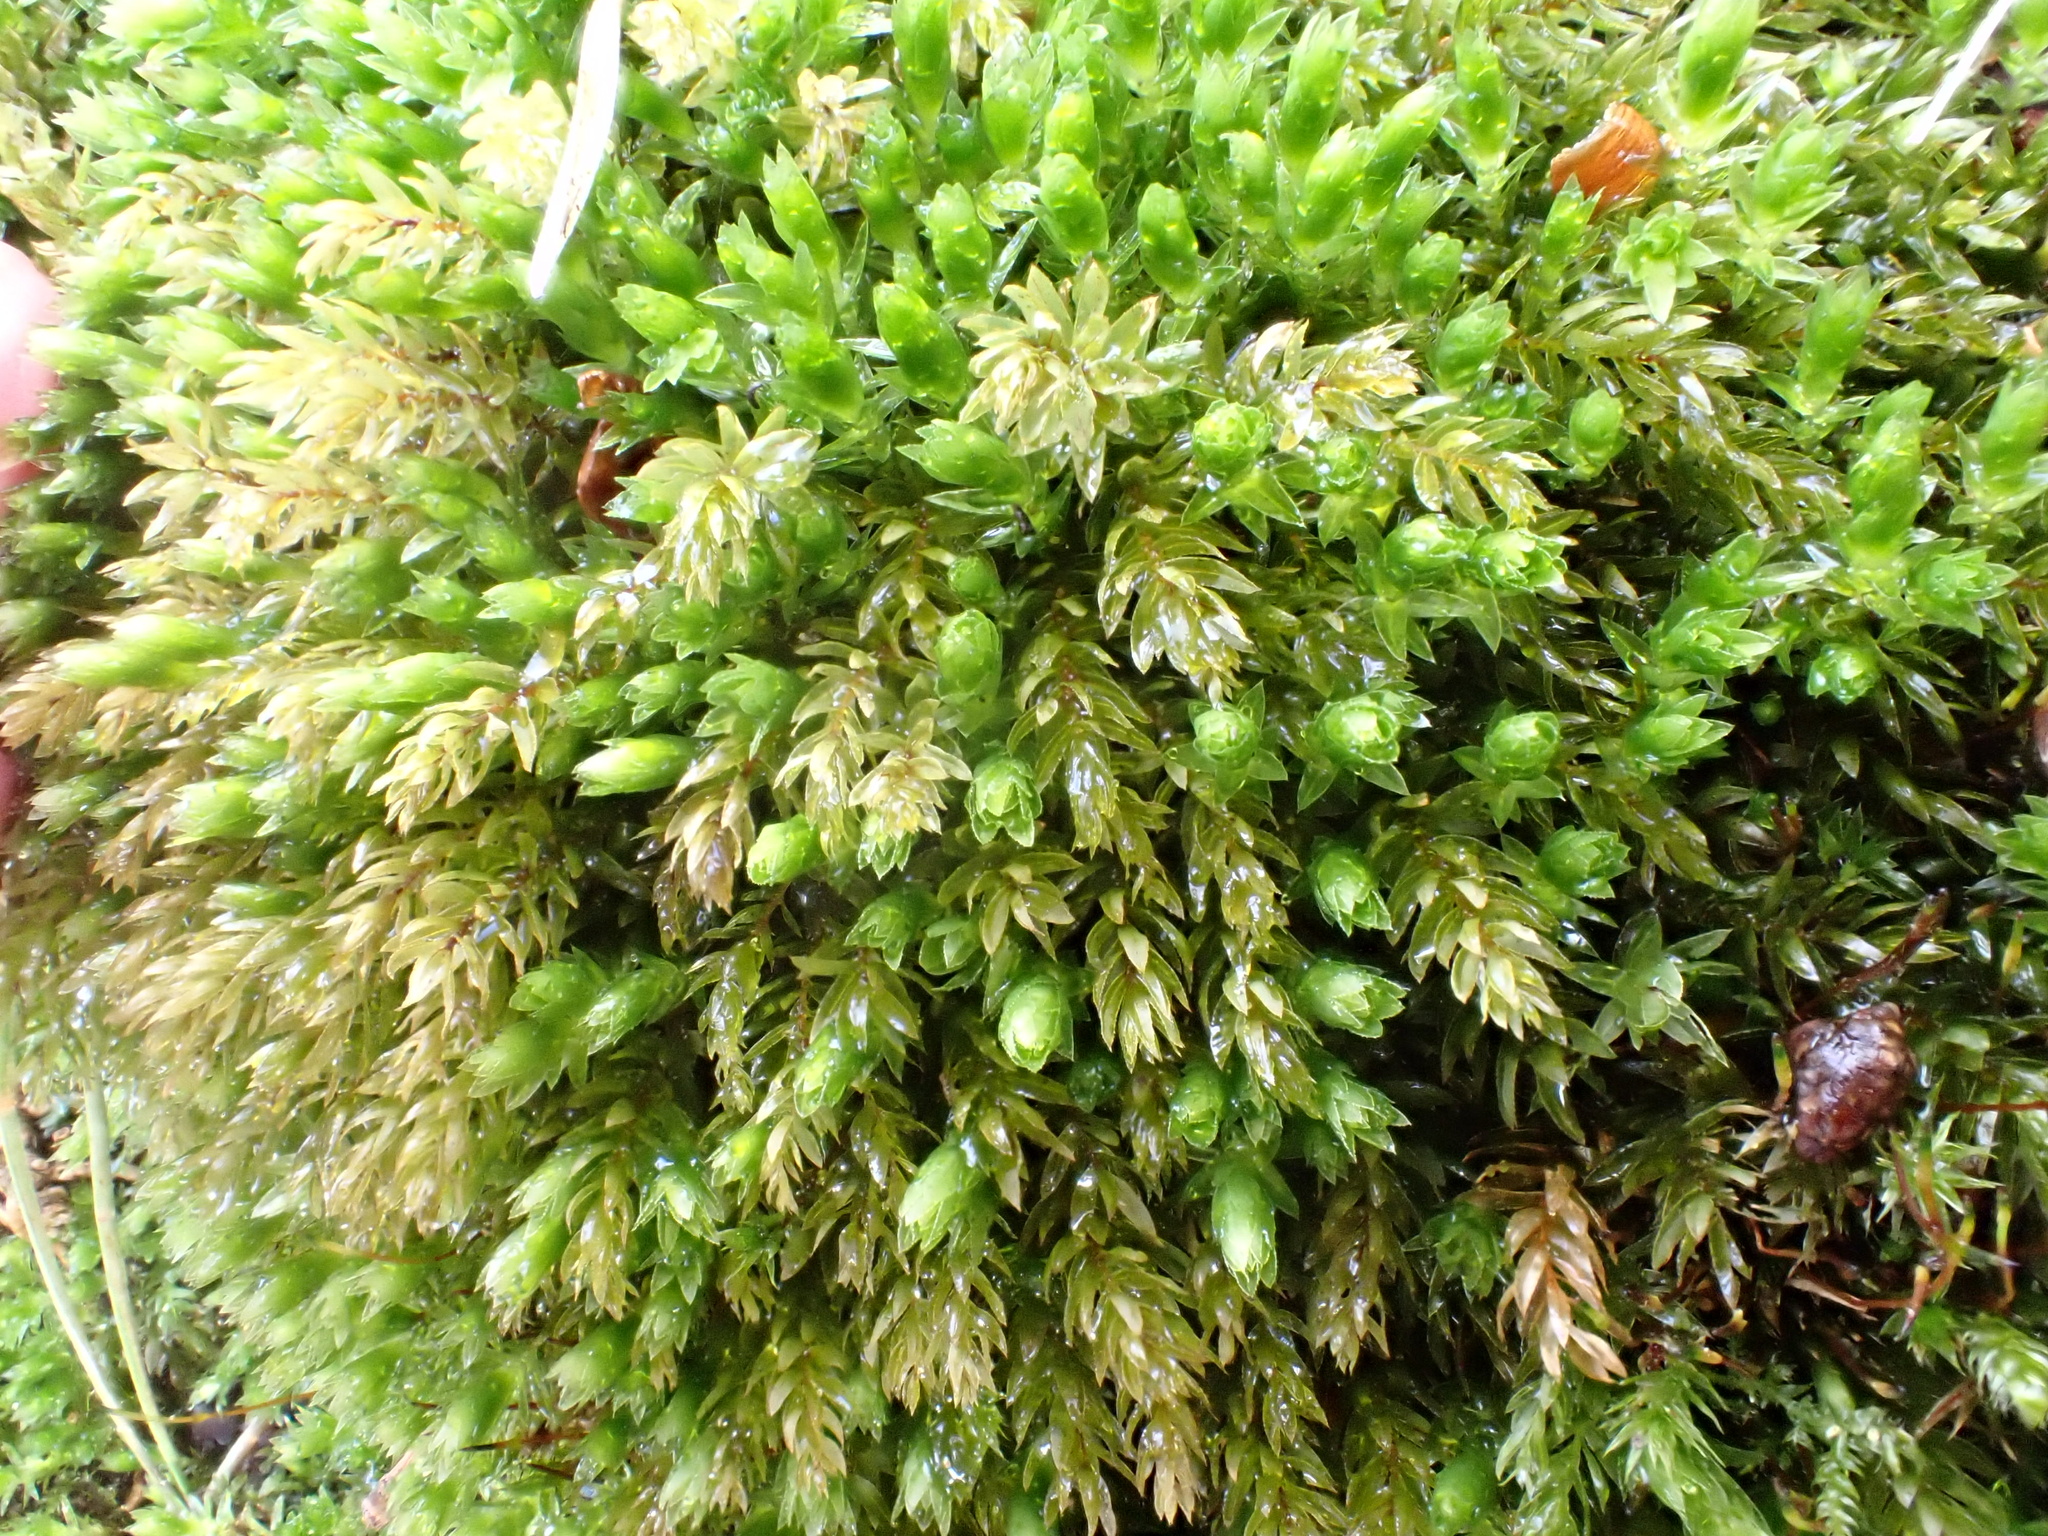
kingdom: Plantae
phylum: Bryophyta
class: Bryopsida
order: Bryales
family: Mniaceae
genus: Mnium
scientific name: Mnium hornum
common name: Swan's-neck leafy moss
